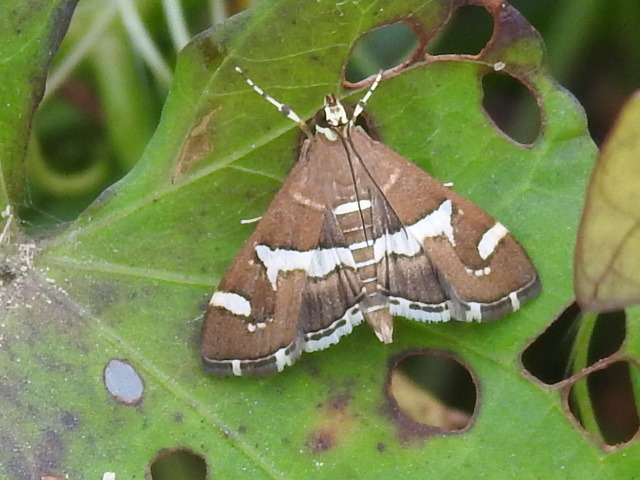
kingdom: Animalia
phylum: Arthropoda
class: Insecta
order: Lepidoptera
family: Crambidae
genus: Spoladea
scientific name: Spoladea recurvalis
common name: Beet webworm moth
